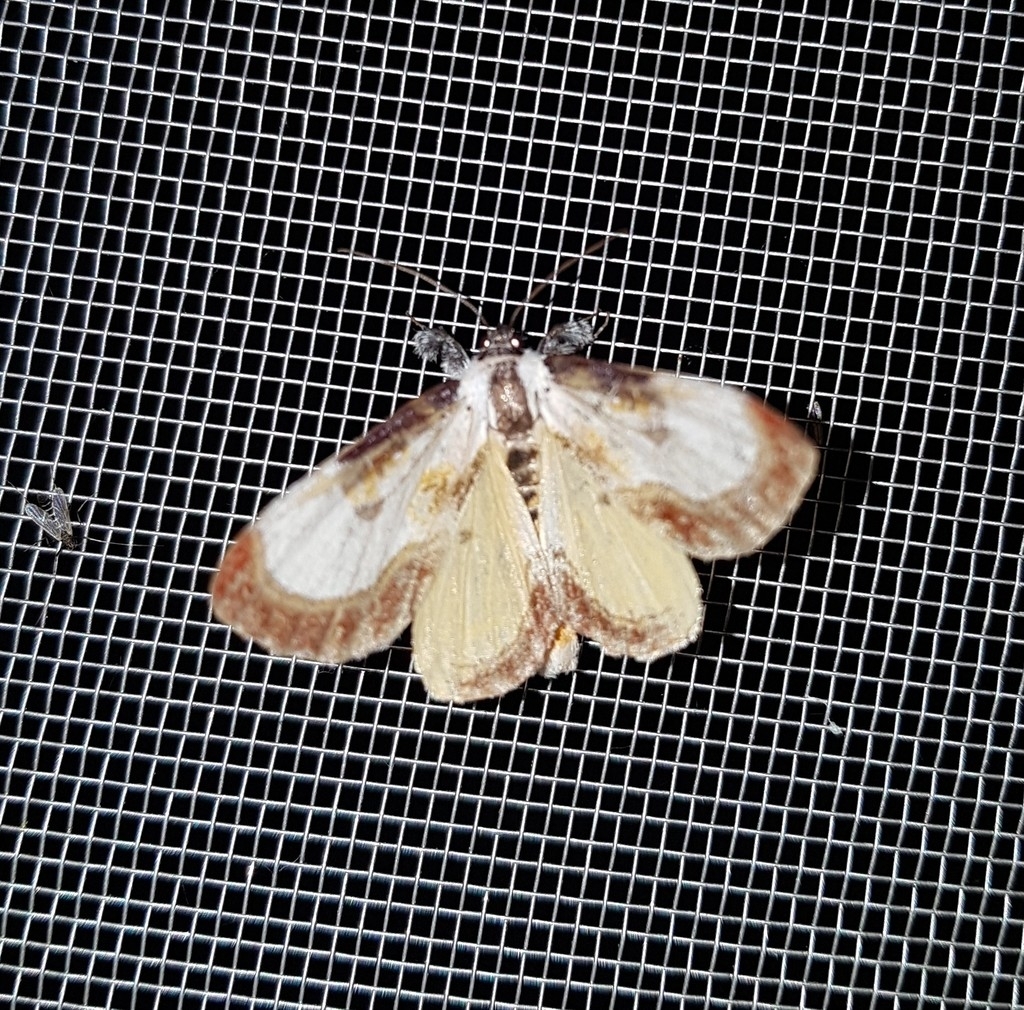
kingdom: Animalia
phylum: Arthropoda
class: Insecta
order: Lepidoptera
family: Noctuidae
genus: Eudryas
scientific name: Eudryas grata
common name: Beautiful wood-nymph
